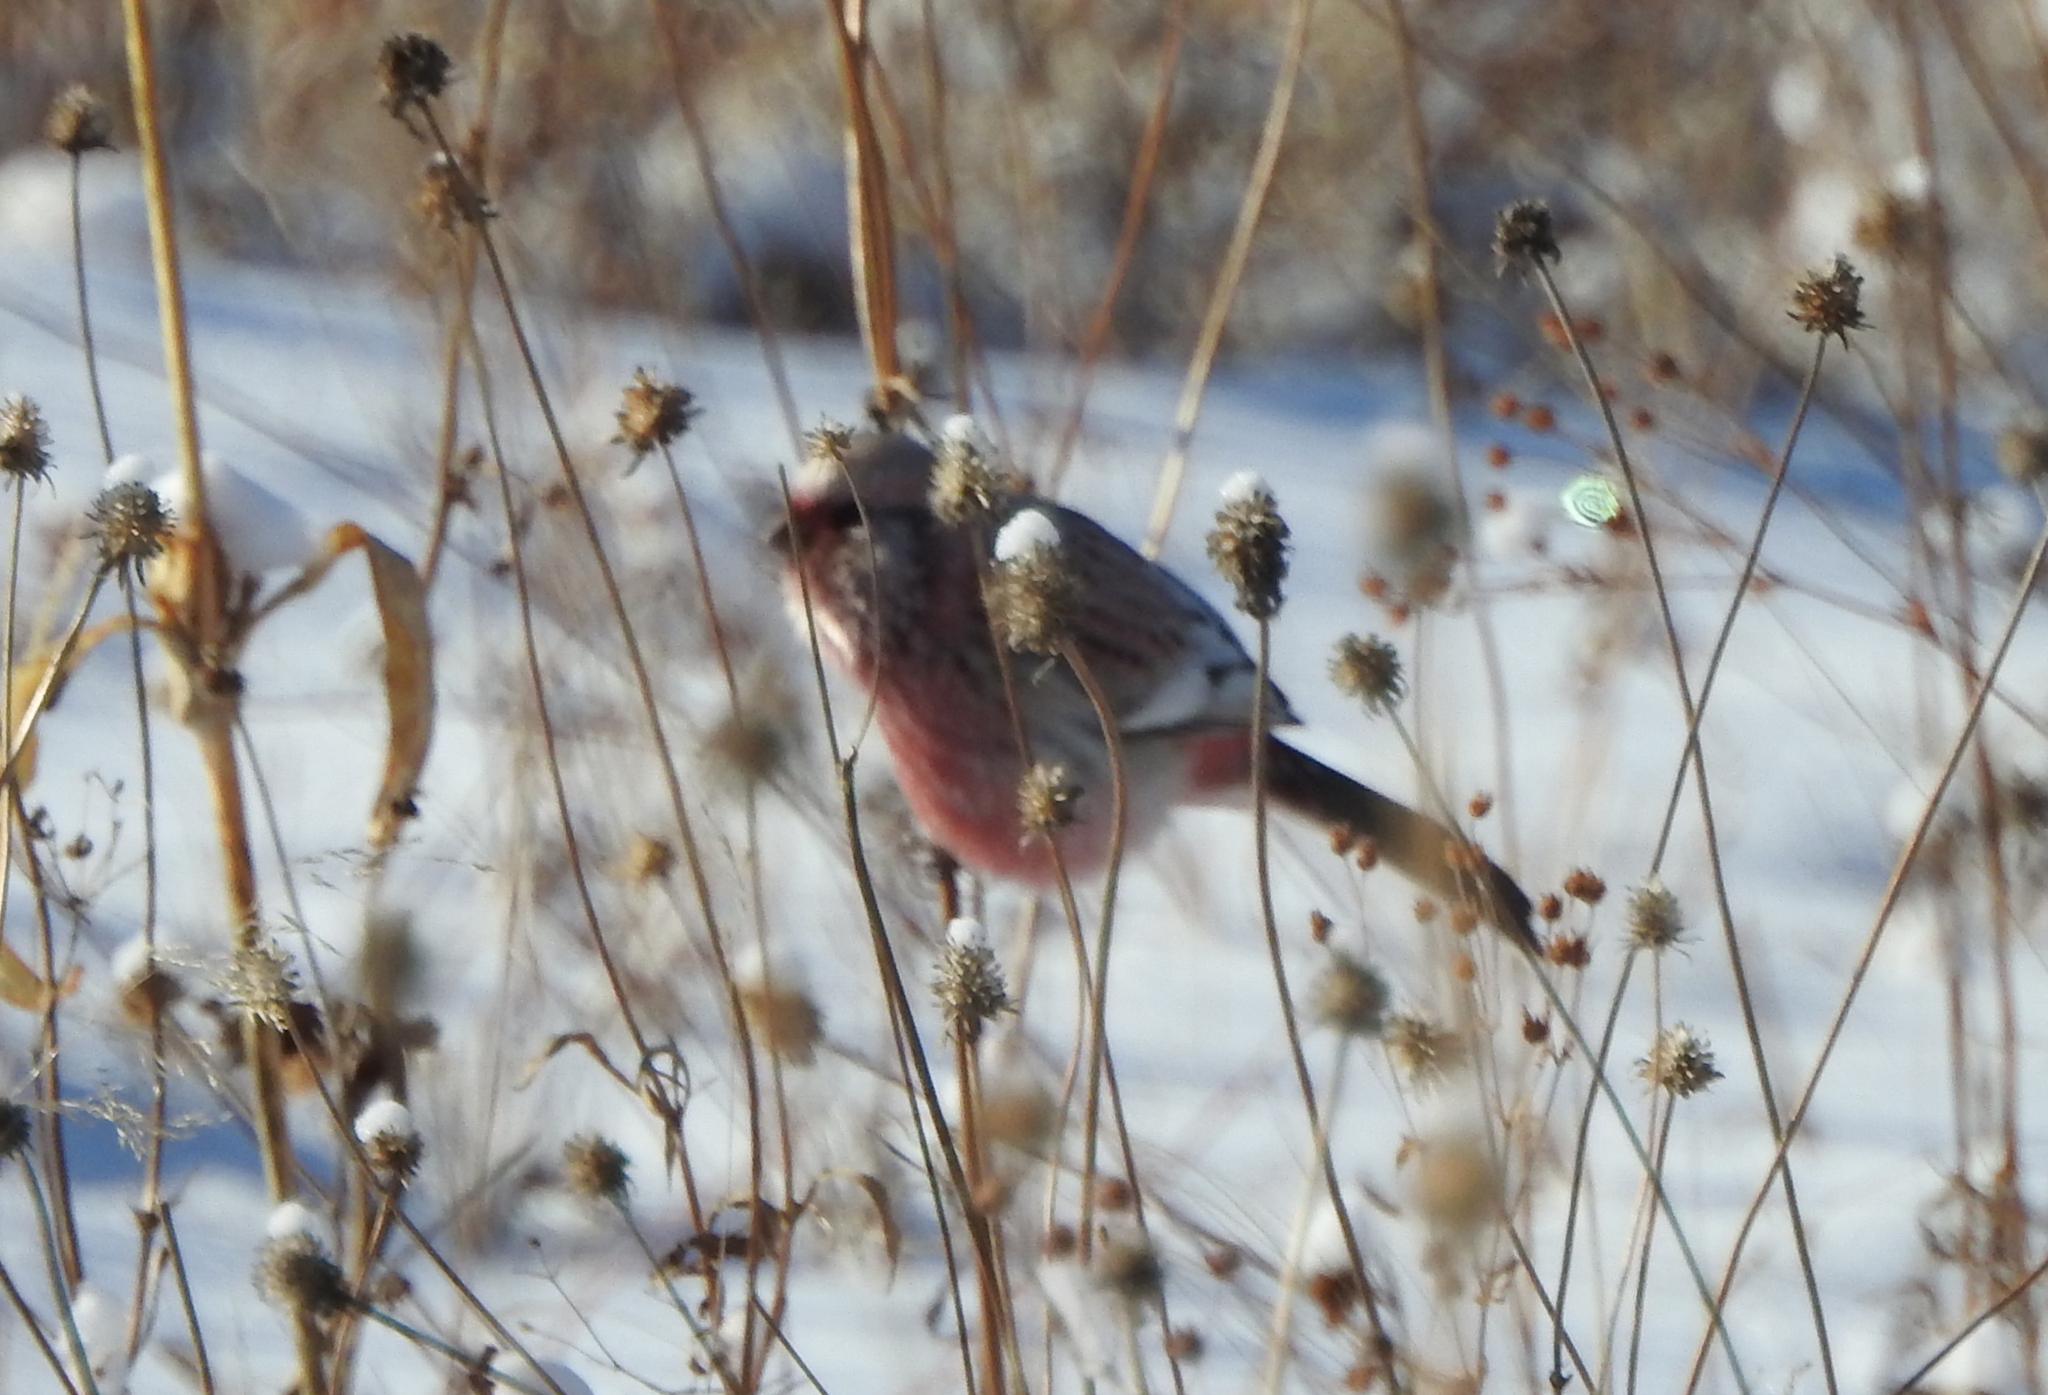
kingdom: Animalia
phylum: Chordata
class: Aves
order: Passeriformes
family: Fringillidae
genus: Carpodacus
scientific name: Carpodacus sibiricus
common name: Long-tailed rosefinch
